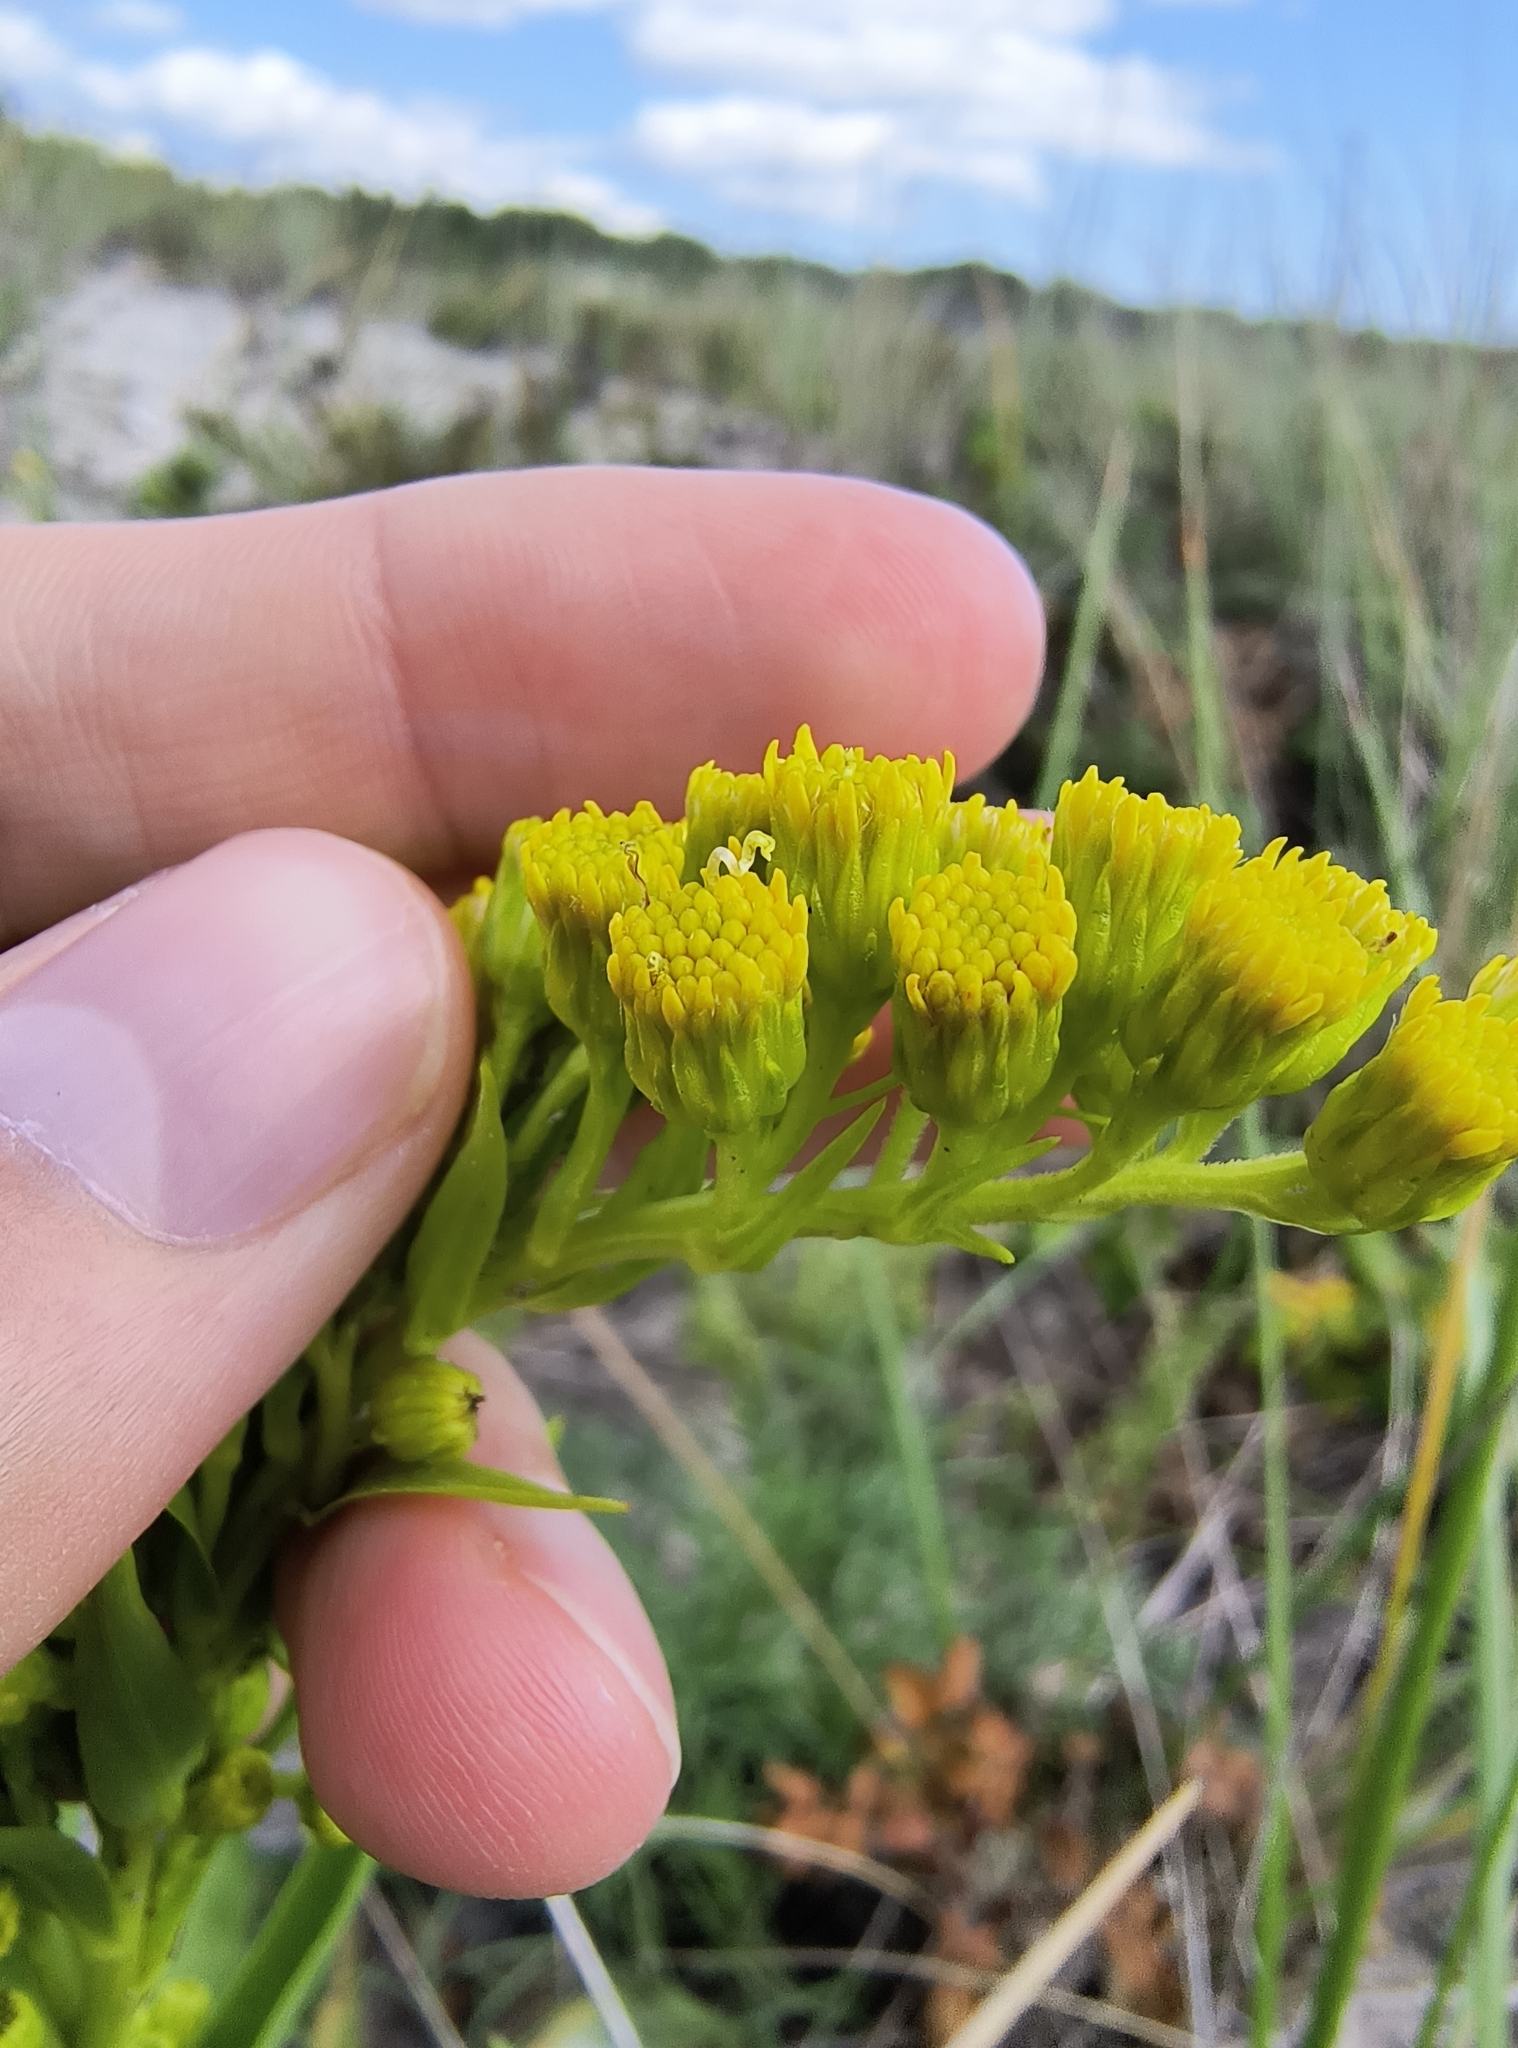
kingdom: Plantae
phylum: Tracheophyta
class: Magnoliopsida
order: Asterales
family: Asteraceae
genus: Solidago
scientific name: Solidago sempervirens
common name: Salt-marsh goldenrod
